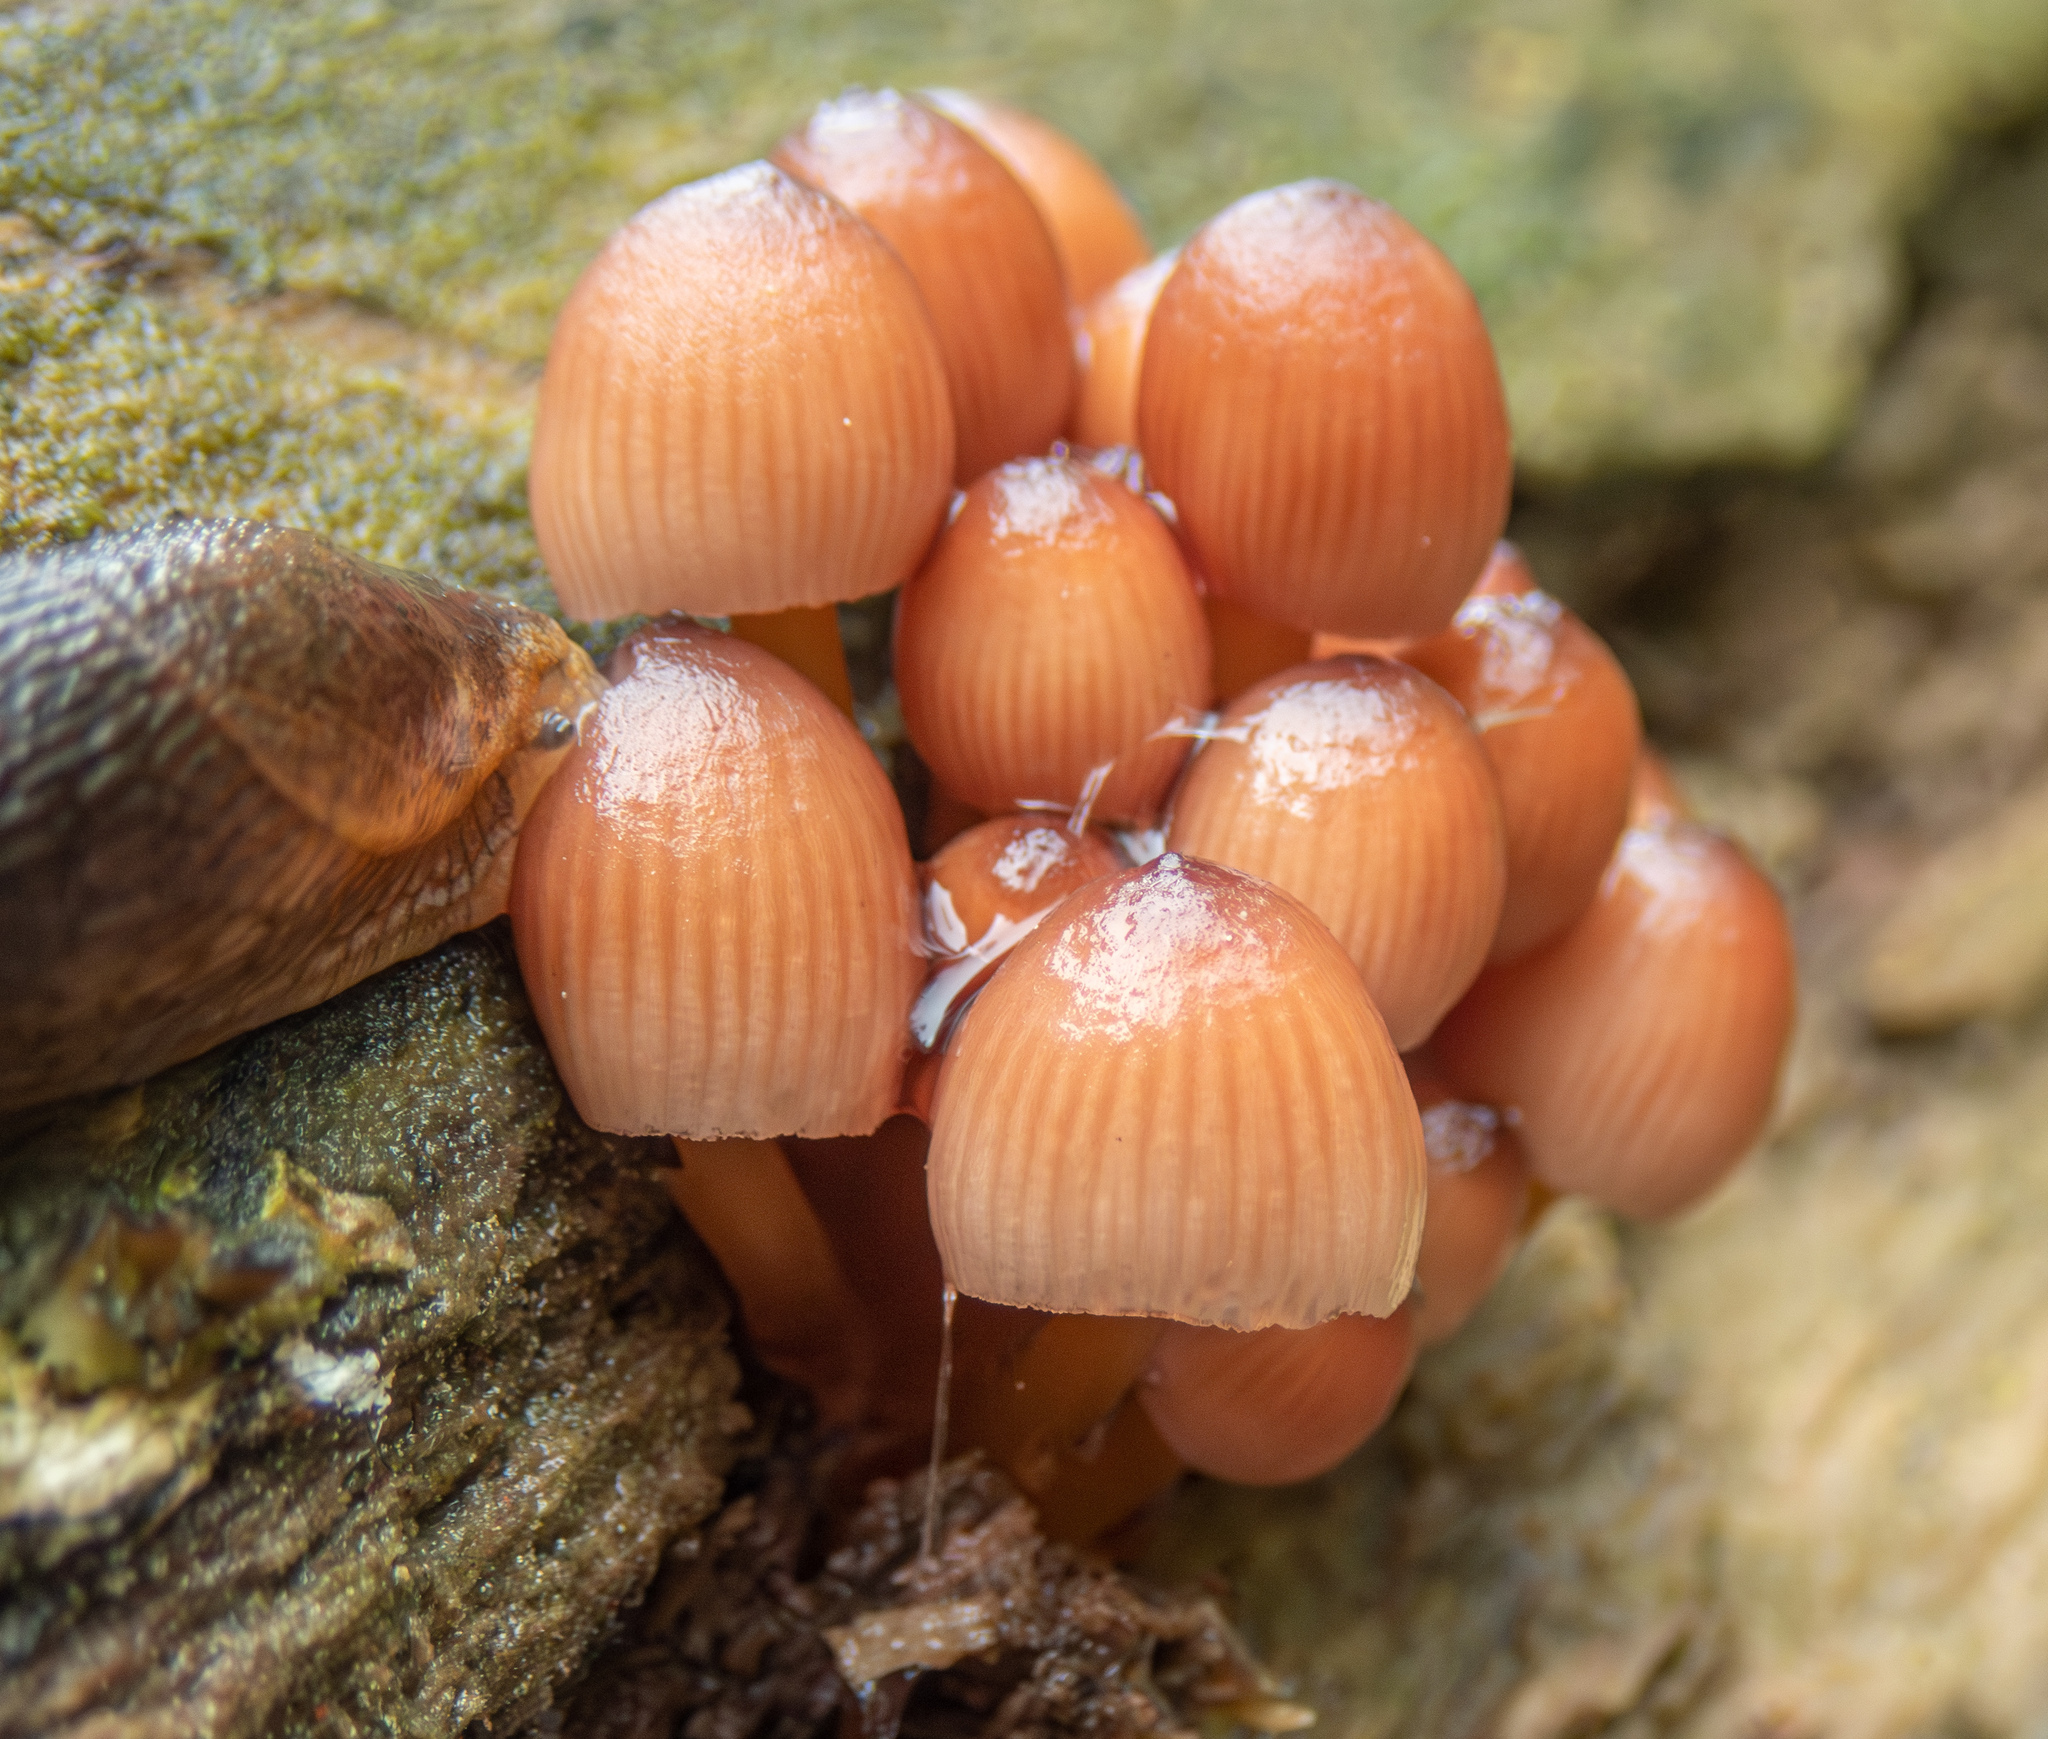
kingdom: Fungi
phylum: Basidiomycota
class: Agaricomycetes
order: Agaricales
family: Mycenaceae
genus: Mycena
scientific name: Mycena renati
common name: Beautiful bonnet
